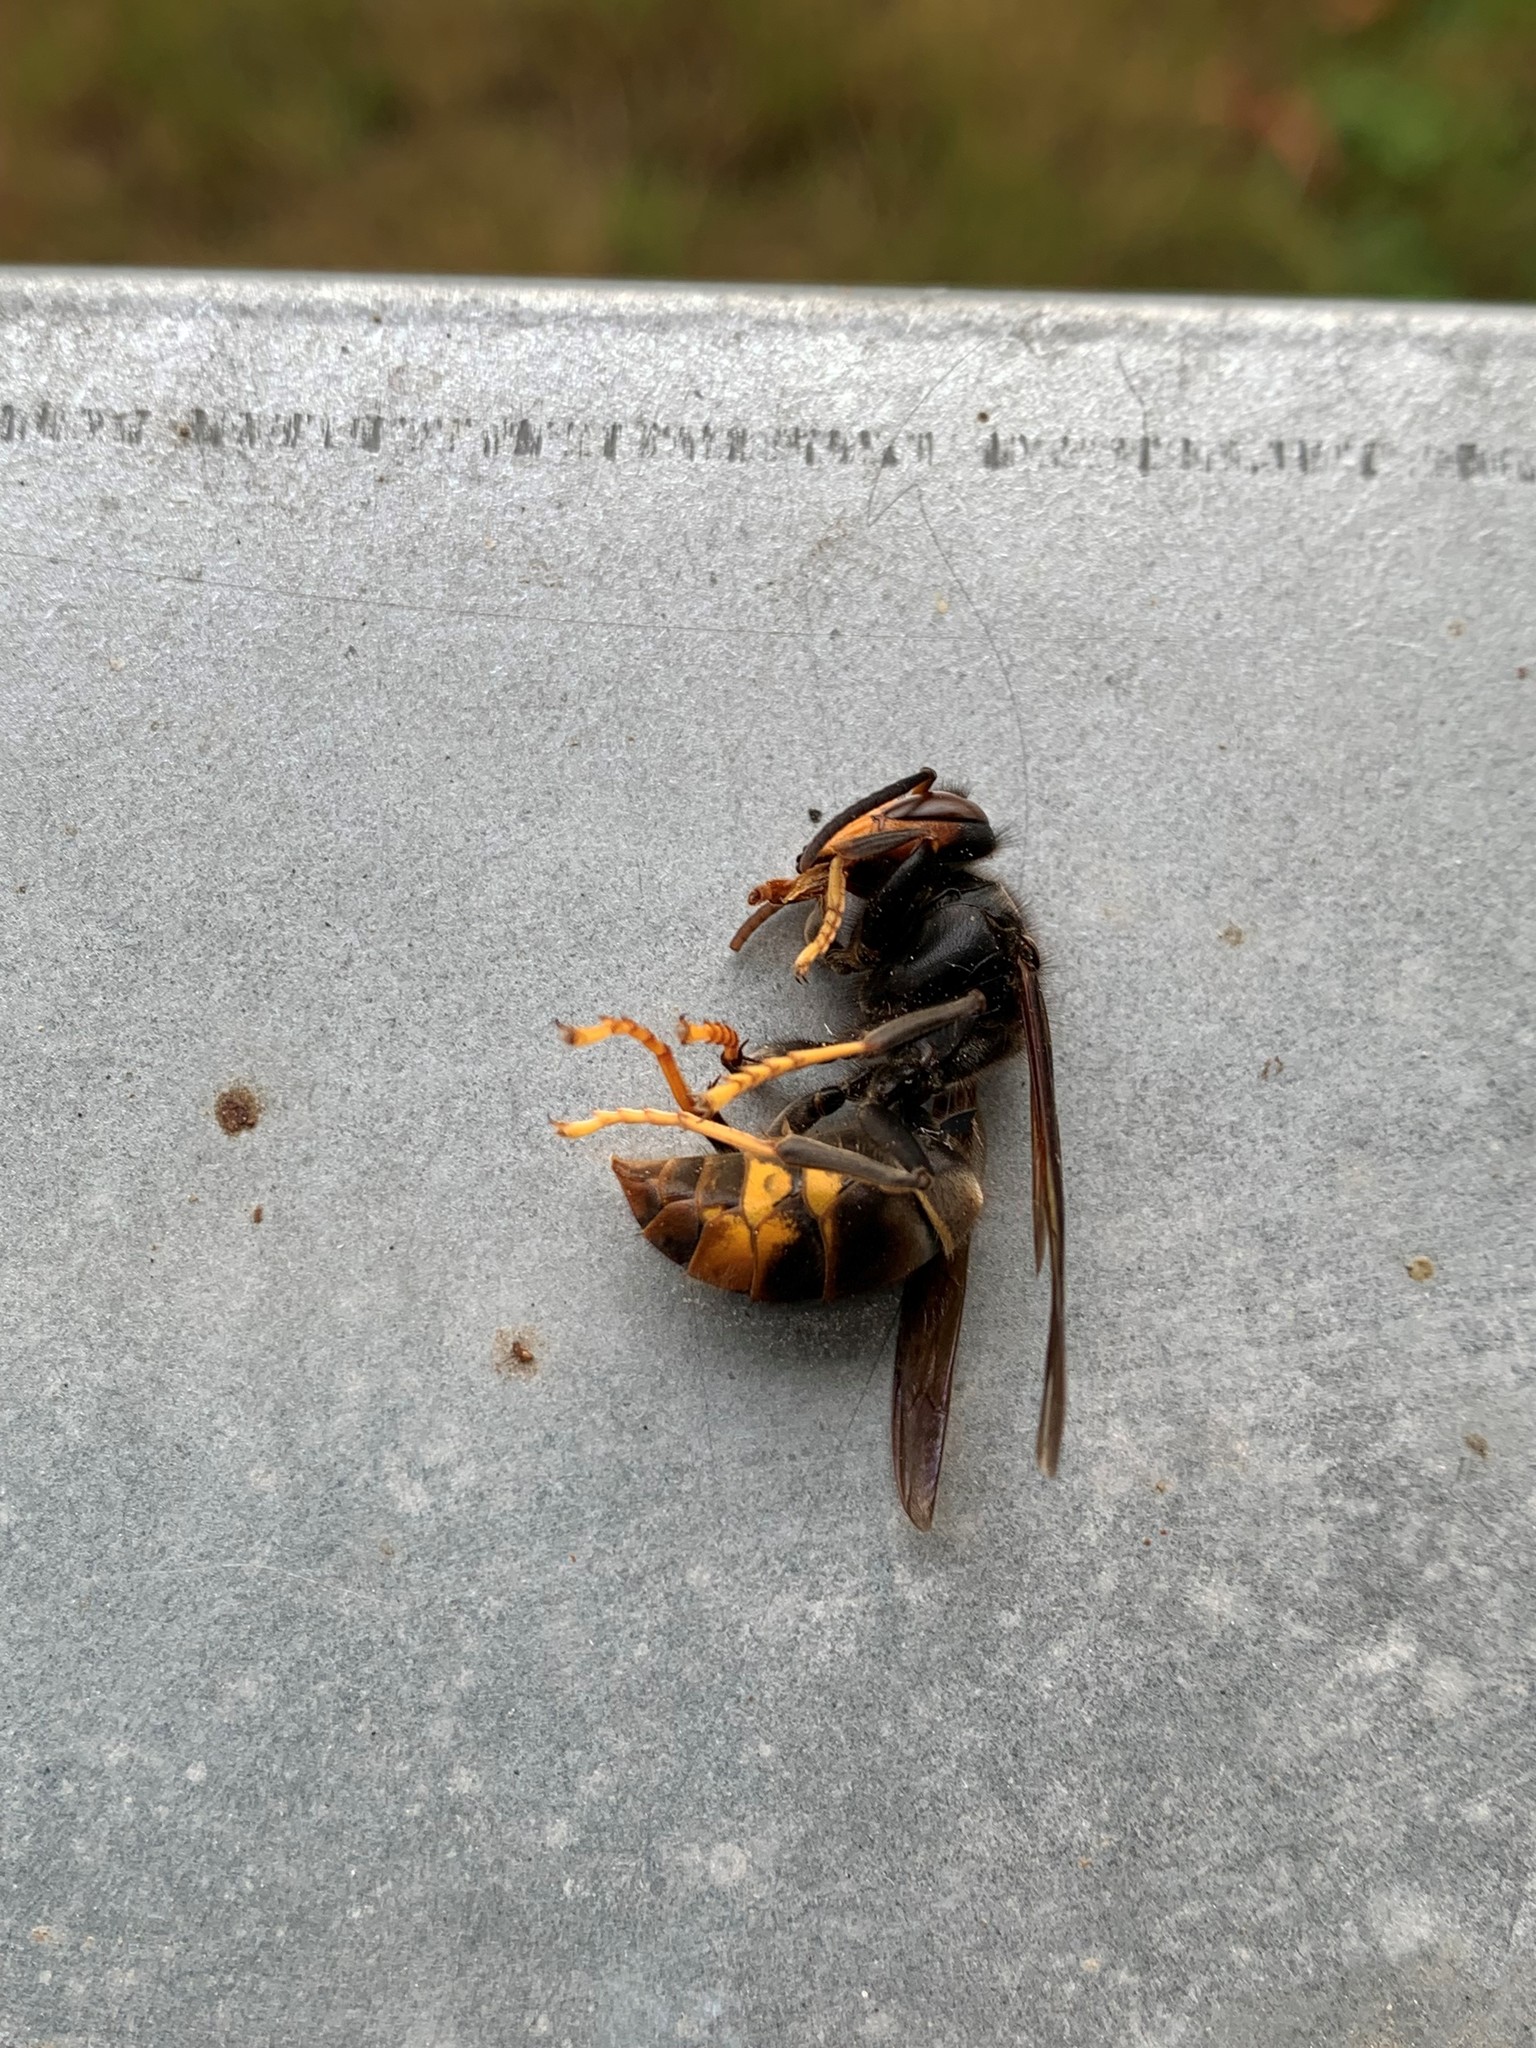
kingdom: Animalia
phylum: Arthropoda
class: Insecta
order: Hymenoptera
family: Vespidae
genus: Vespa
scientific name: Vespa velutina
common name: Asian hornet
